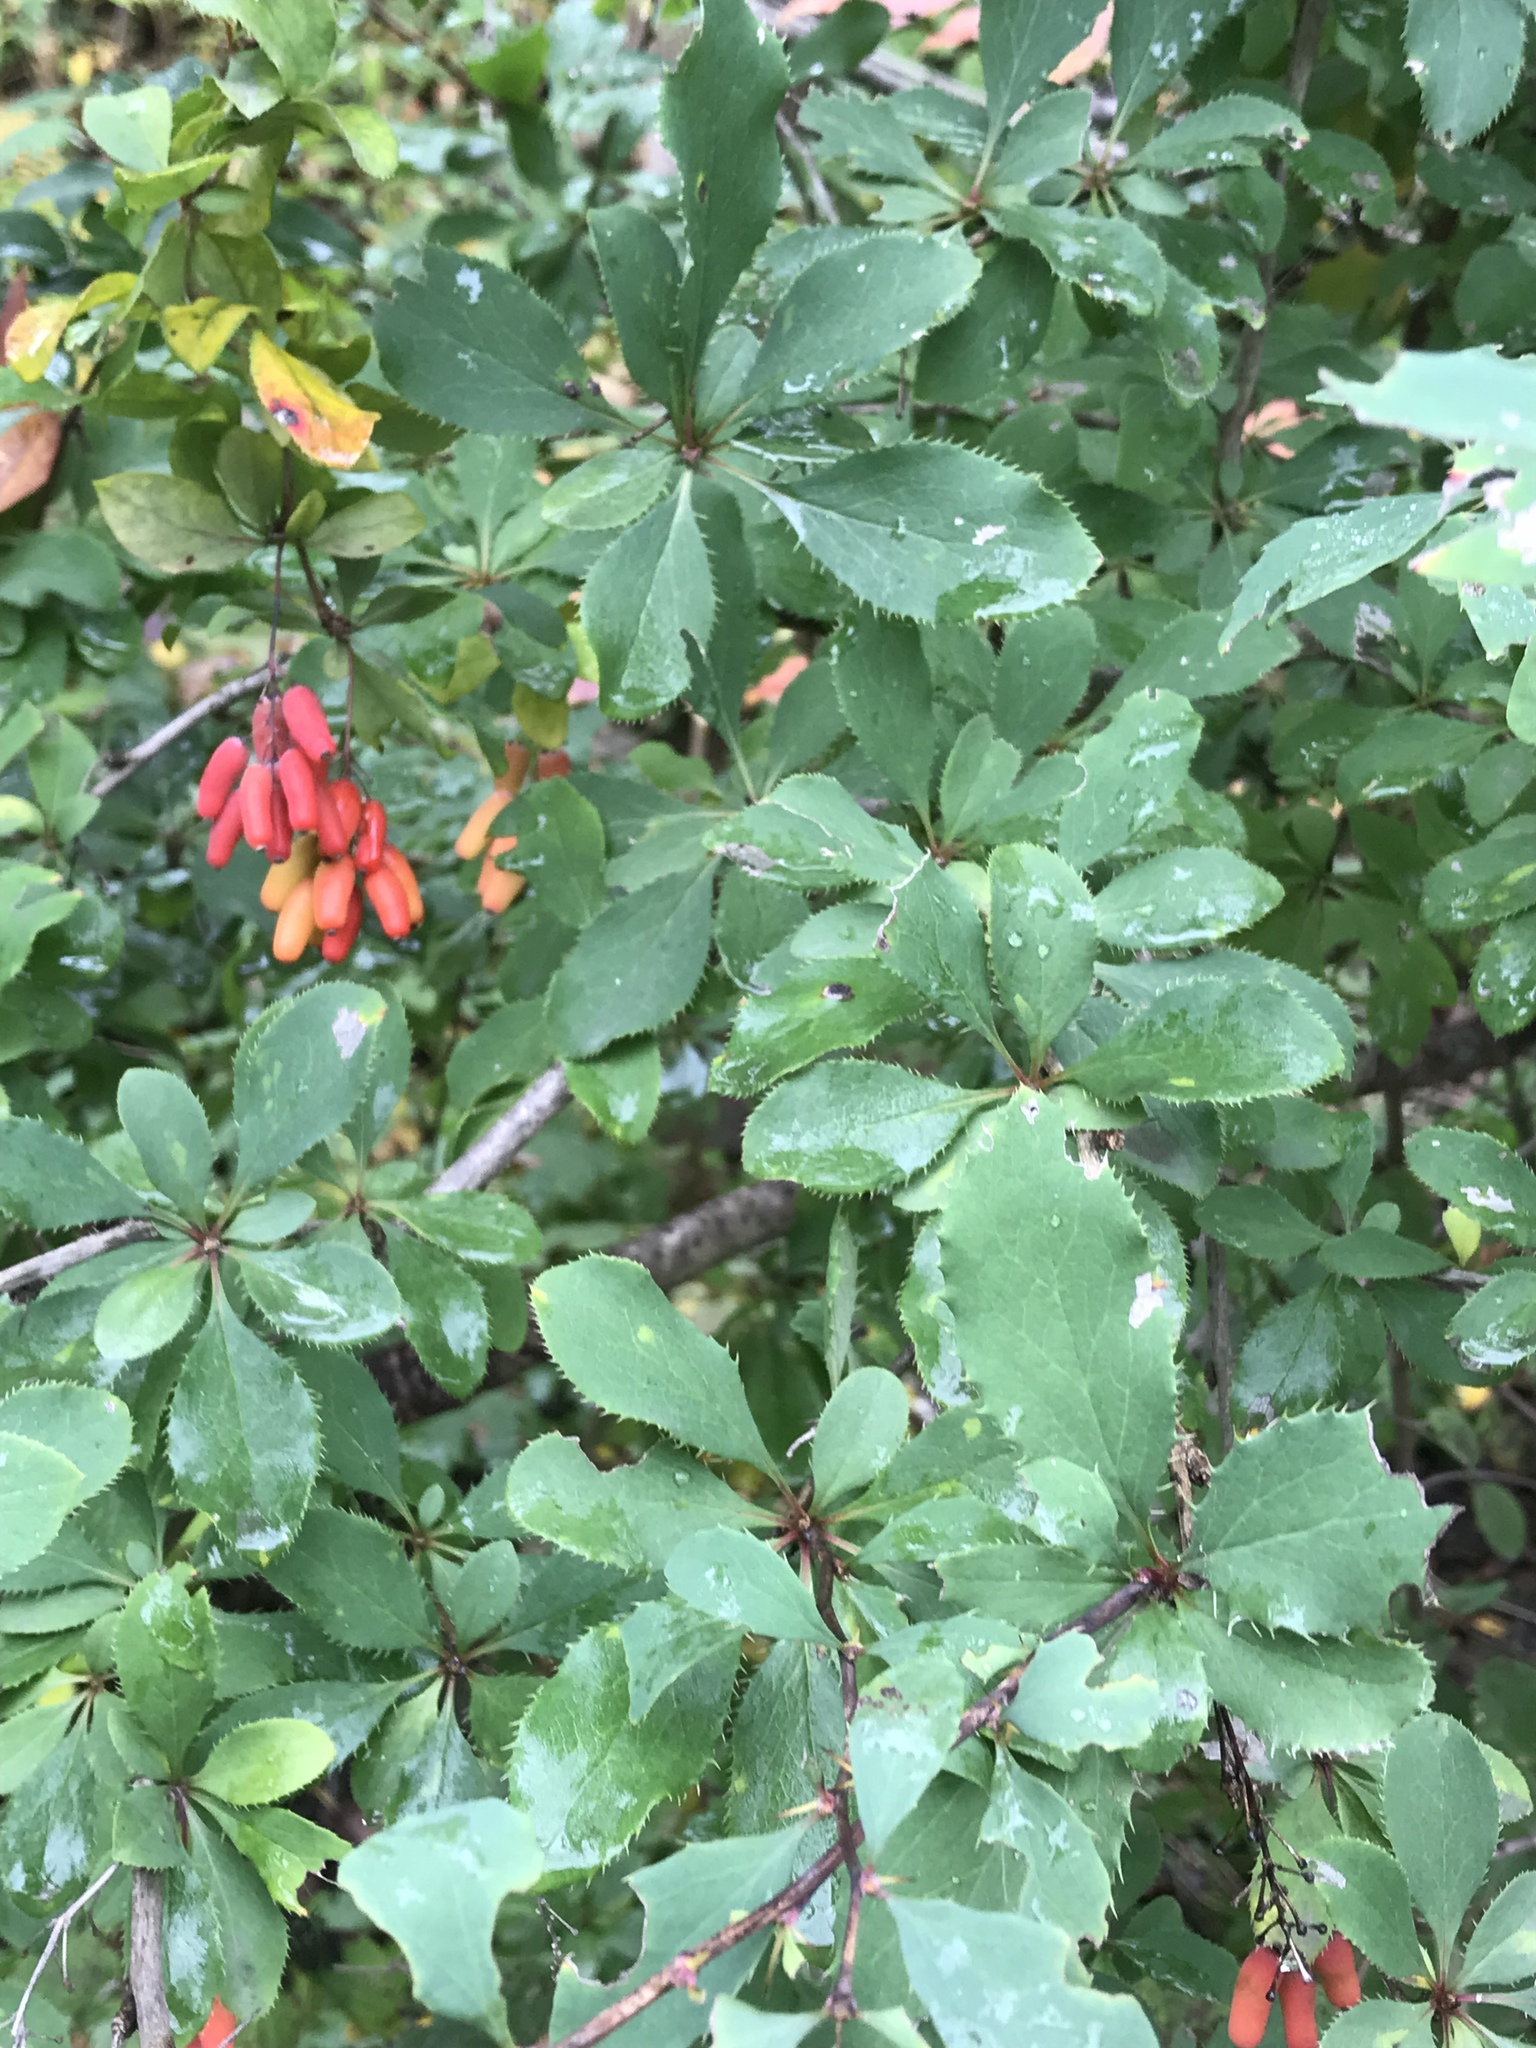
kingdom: Plantae
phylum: Tracheophyta
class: Magnoliopsida
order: Ranunculales
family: Berberidaceae
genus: Berberis
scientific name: Berberis vulgaris
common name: Barberry
